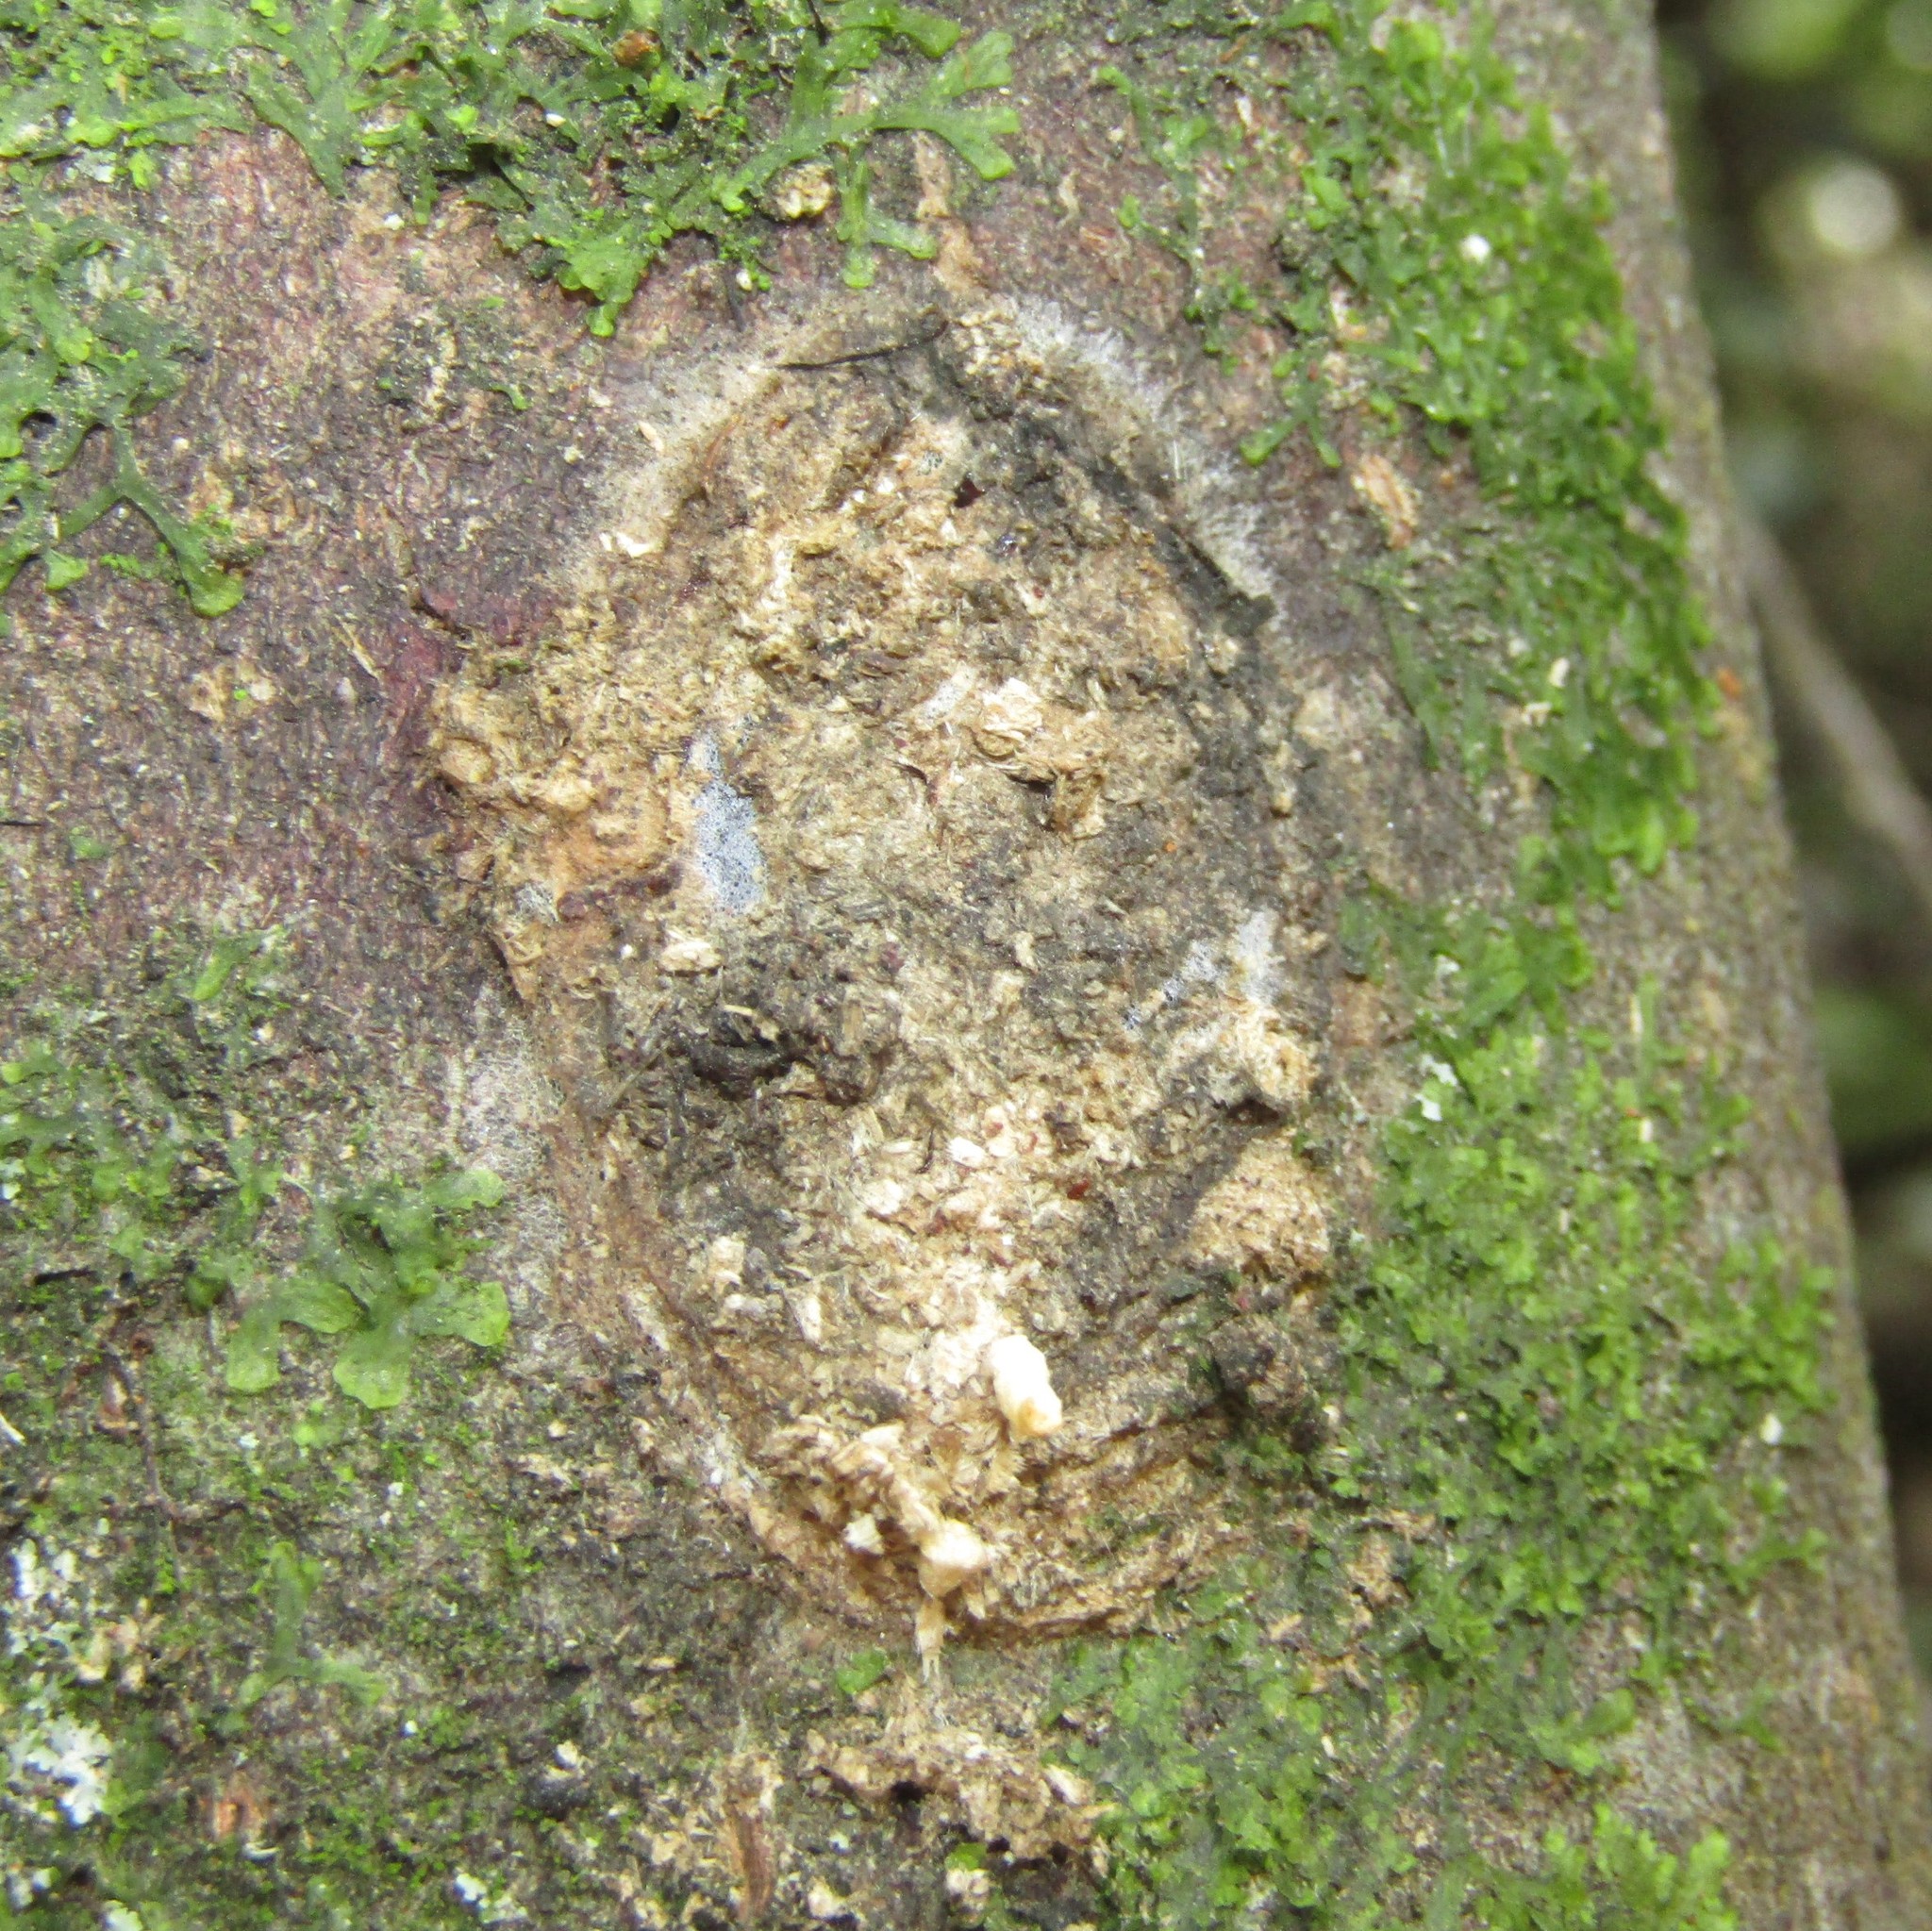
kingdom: Animalia
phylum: Arthropoda
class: Insecta
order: Lepidoptera
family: Hepialidae
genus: Aenetus
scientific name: Aenetus virescens
